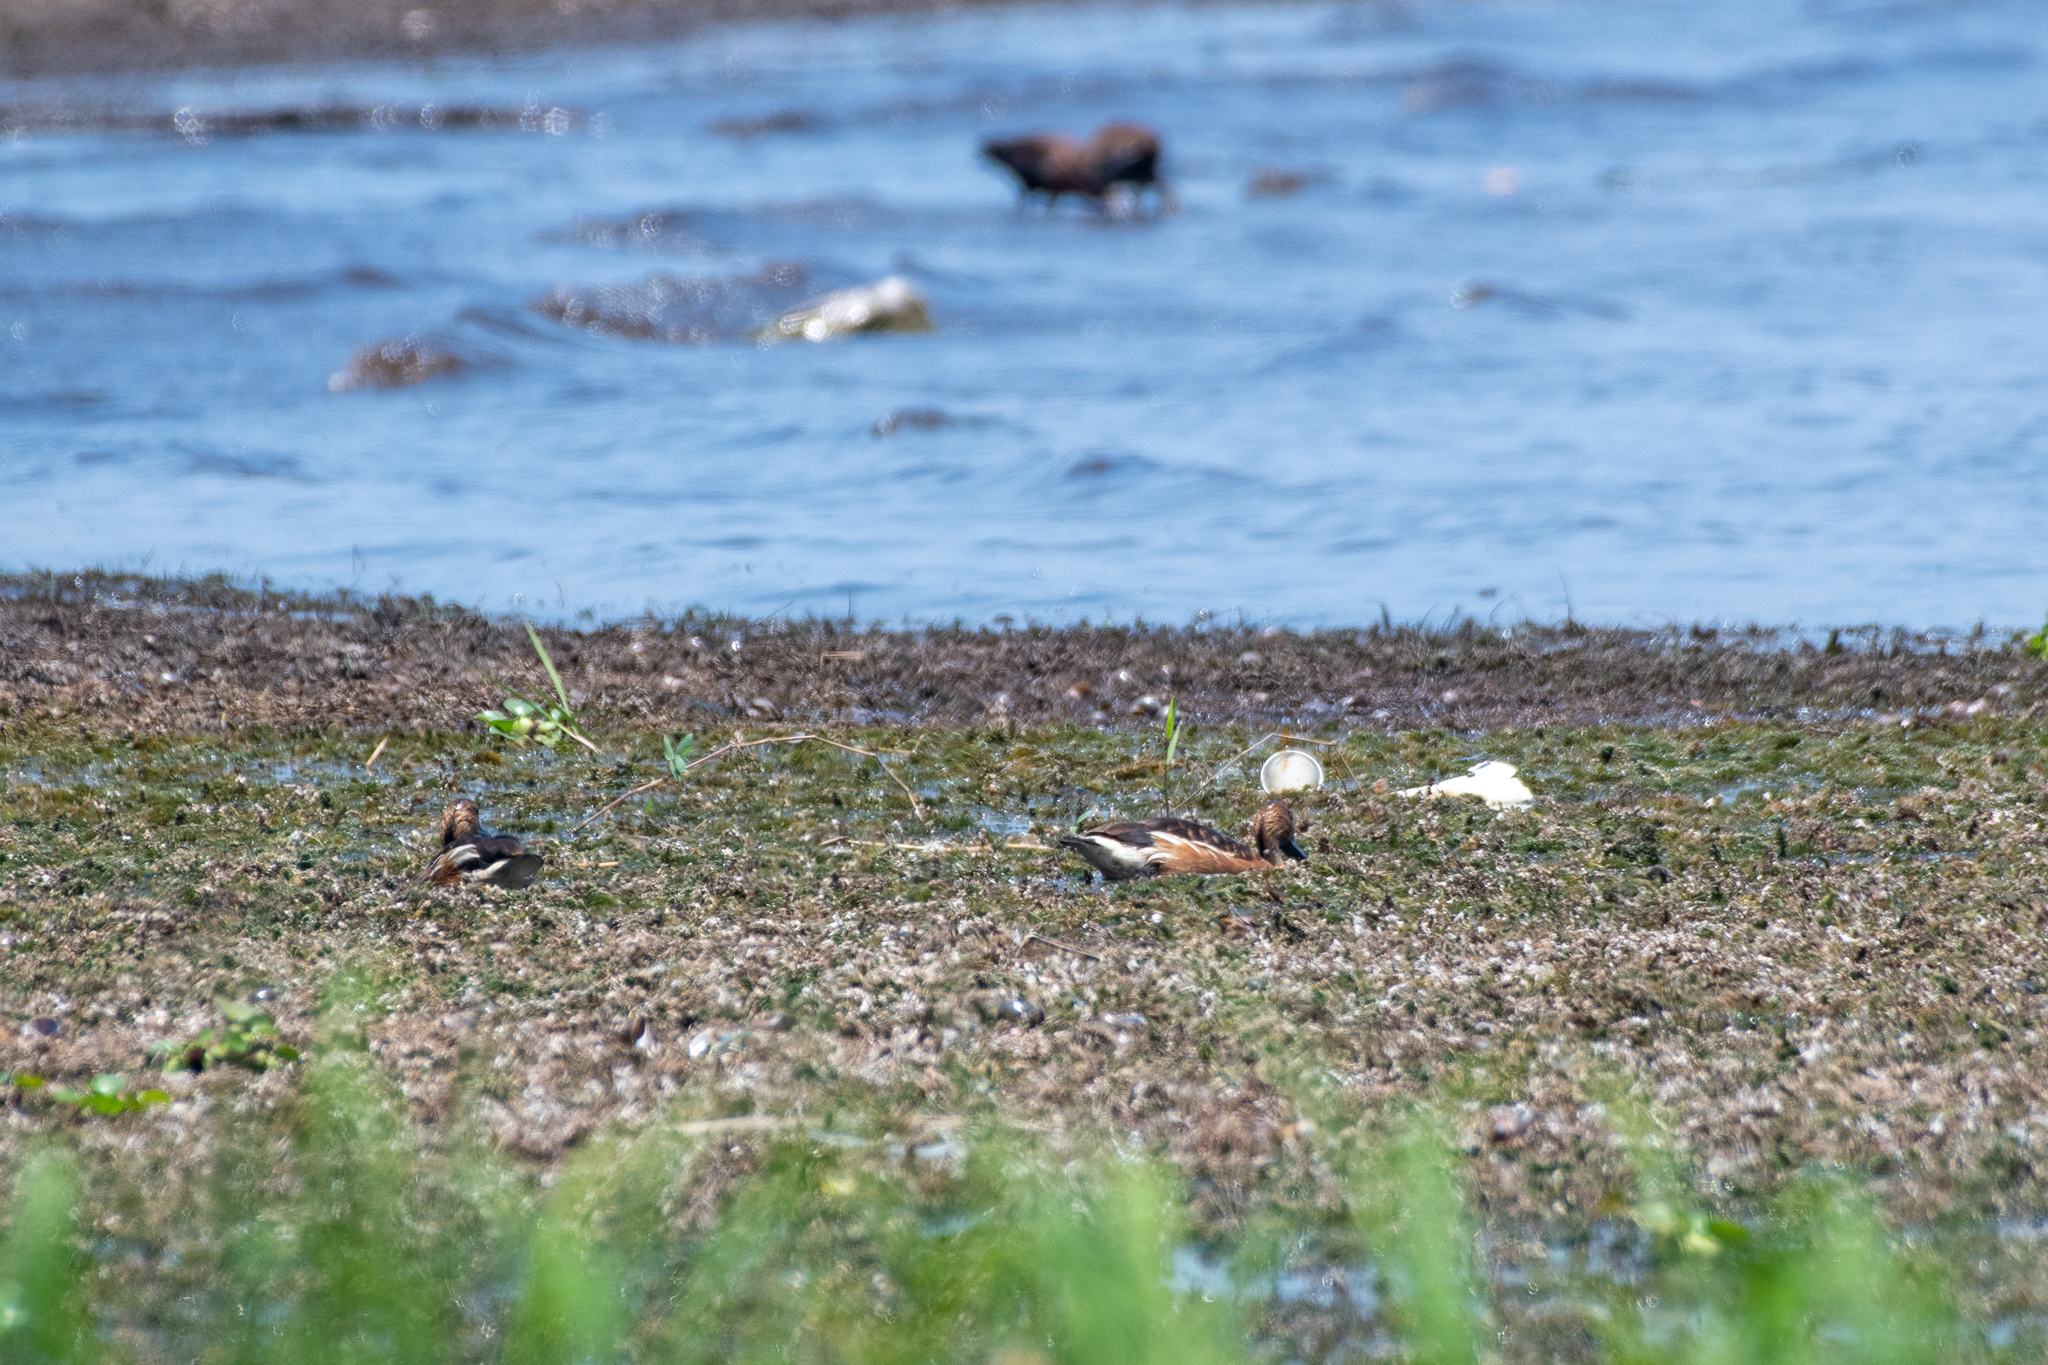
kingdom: Animalia
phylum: Chordata
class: Aves
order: Anseriformes
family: Anatidae
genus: Dendrocygna
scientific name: Dendrocygna bicolor
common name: Fulvous whistling duck
